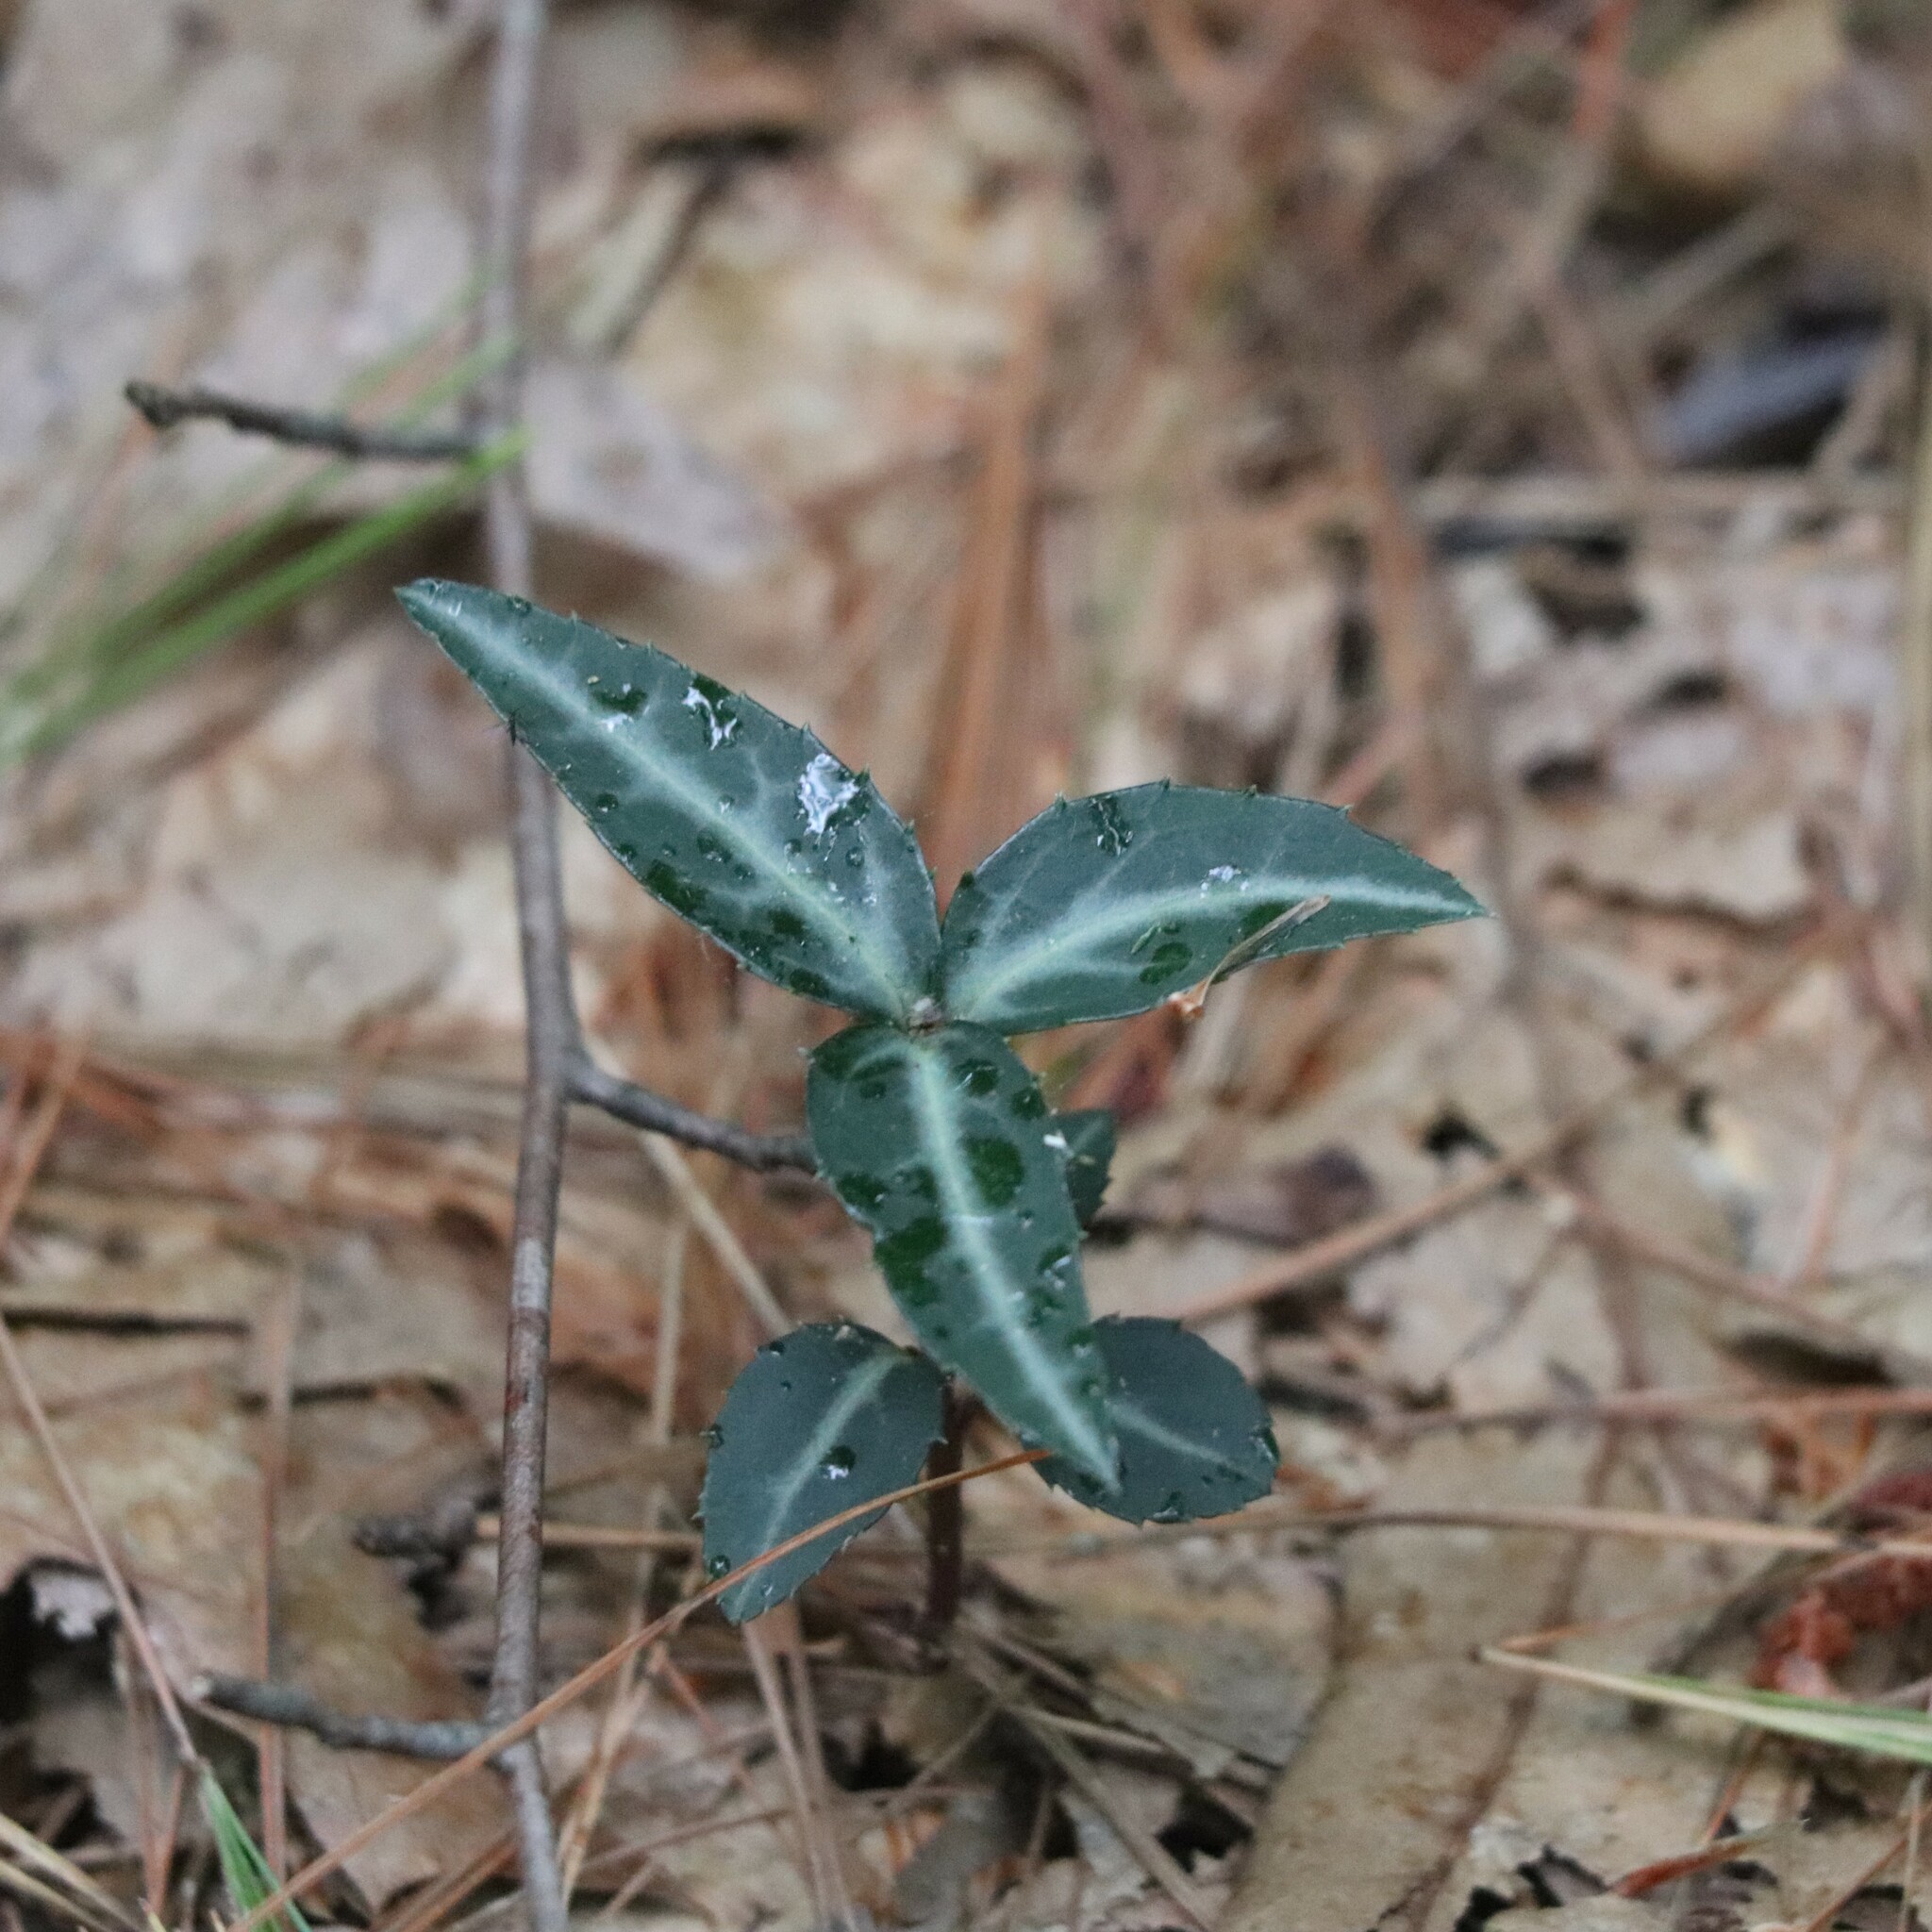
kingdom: Plantae
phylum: Tracheophyta
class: Magnoliopsida
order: Ericales
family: Ericaceae
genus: Chimaphila
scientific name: Chimaphila maculata
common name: Spotted pipsissewa
